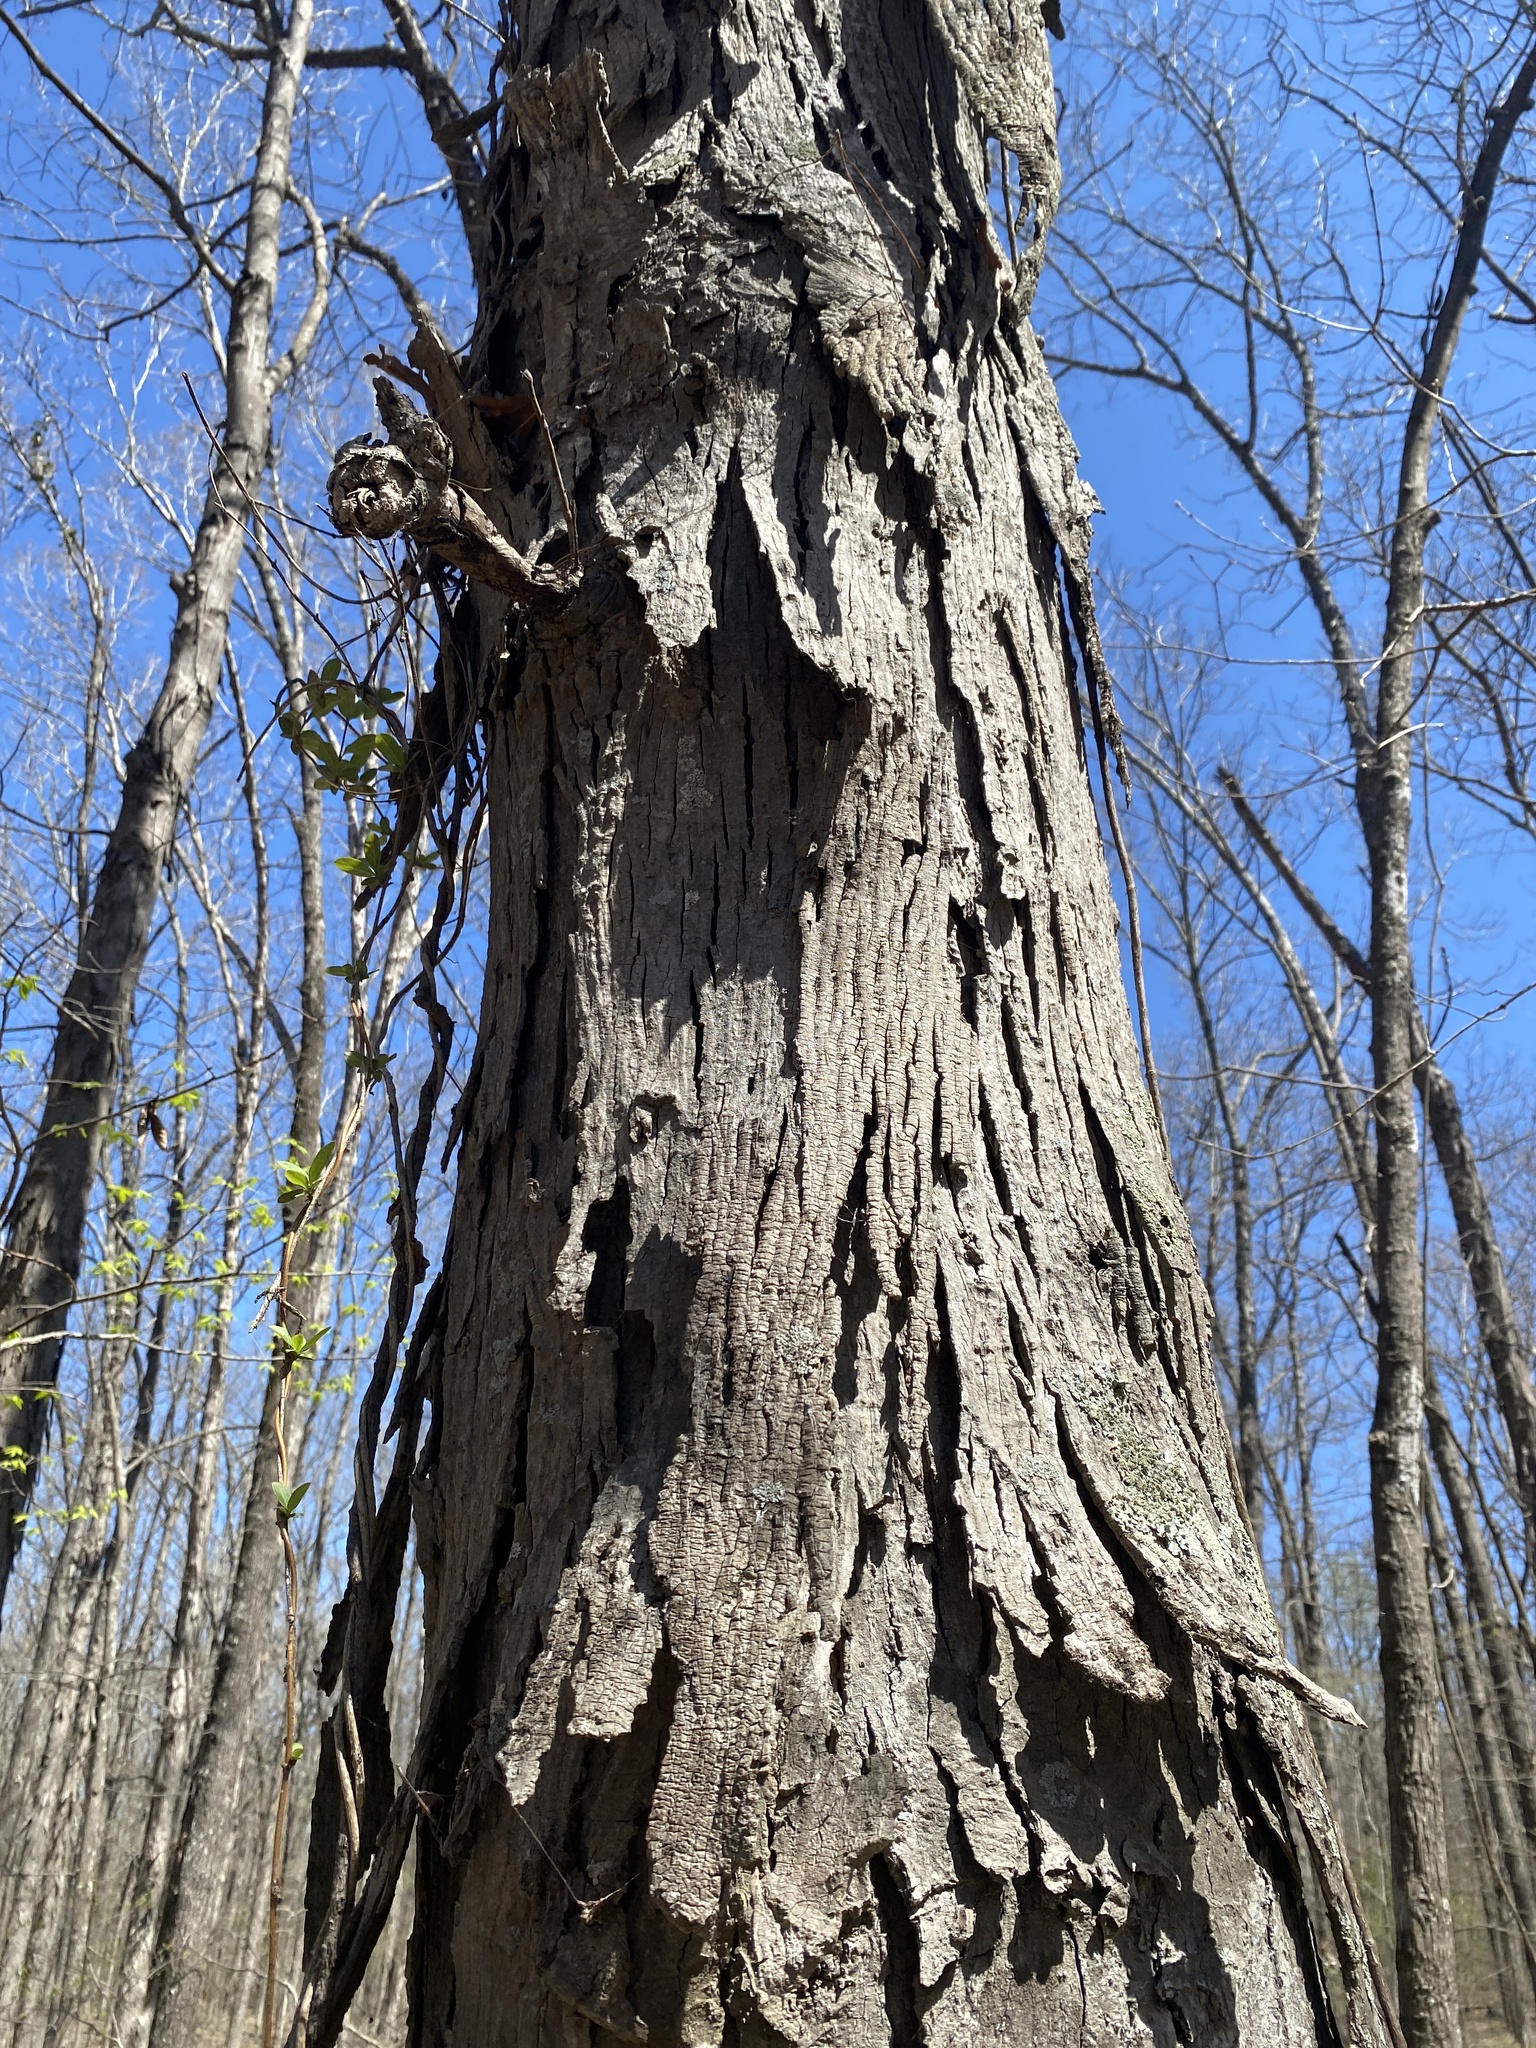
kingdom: Plantae
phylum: Tracheophyta
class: Magnoliopsida
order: Fagales
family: Juglandaceae
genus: Carya
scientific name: Carya ovata
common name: Shagbark hickory
